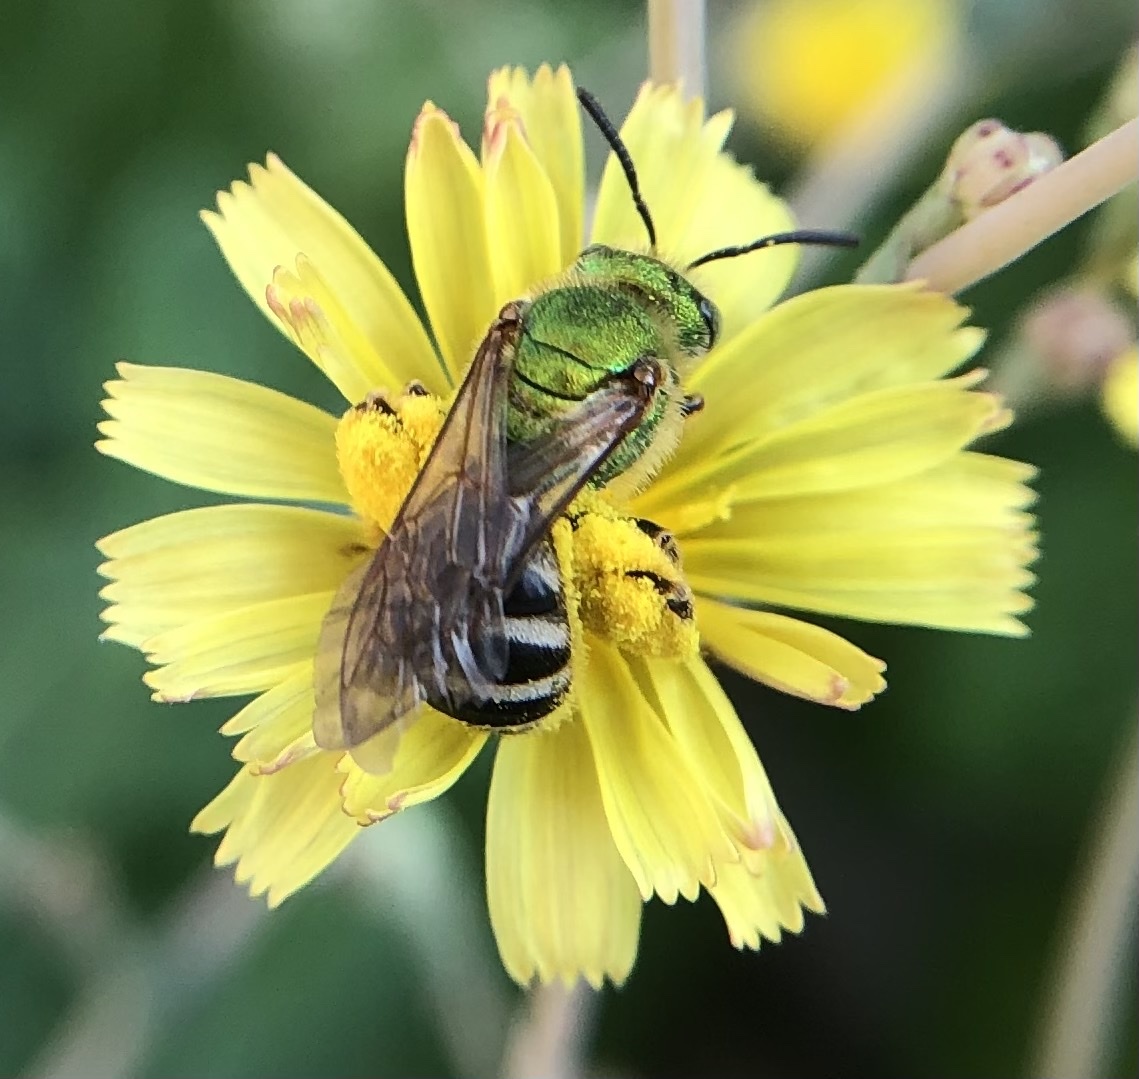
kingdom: Animalia
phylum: Arthropoda
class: Insecta
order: Hymenoptera
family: Halictidae
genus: Agapostemon
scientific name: Agapostemon virescens
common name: Bicolored striped sweat bee
